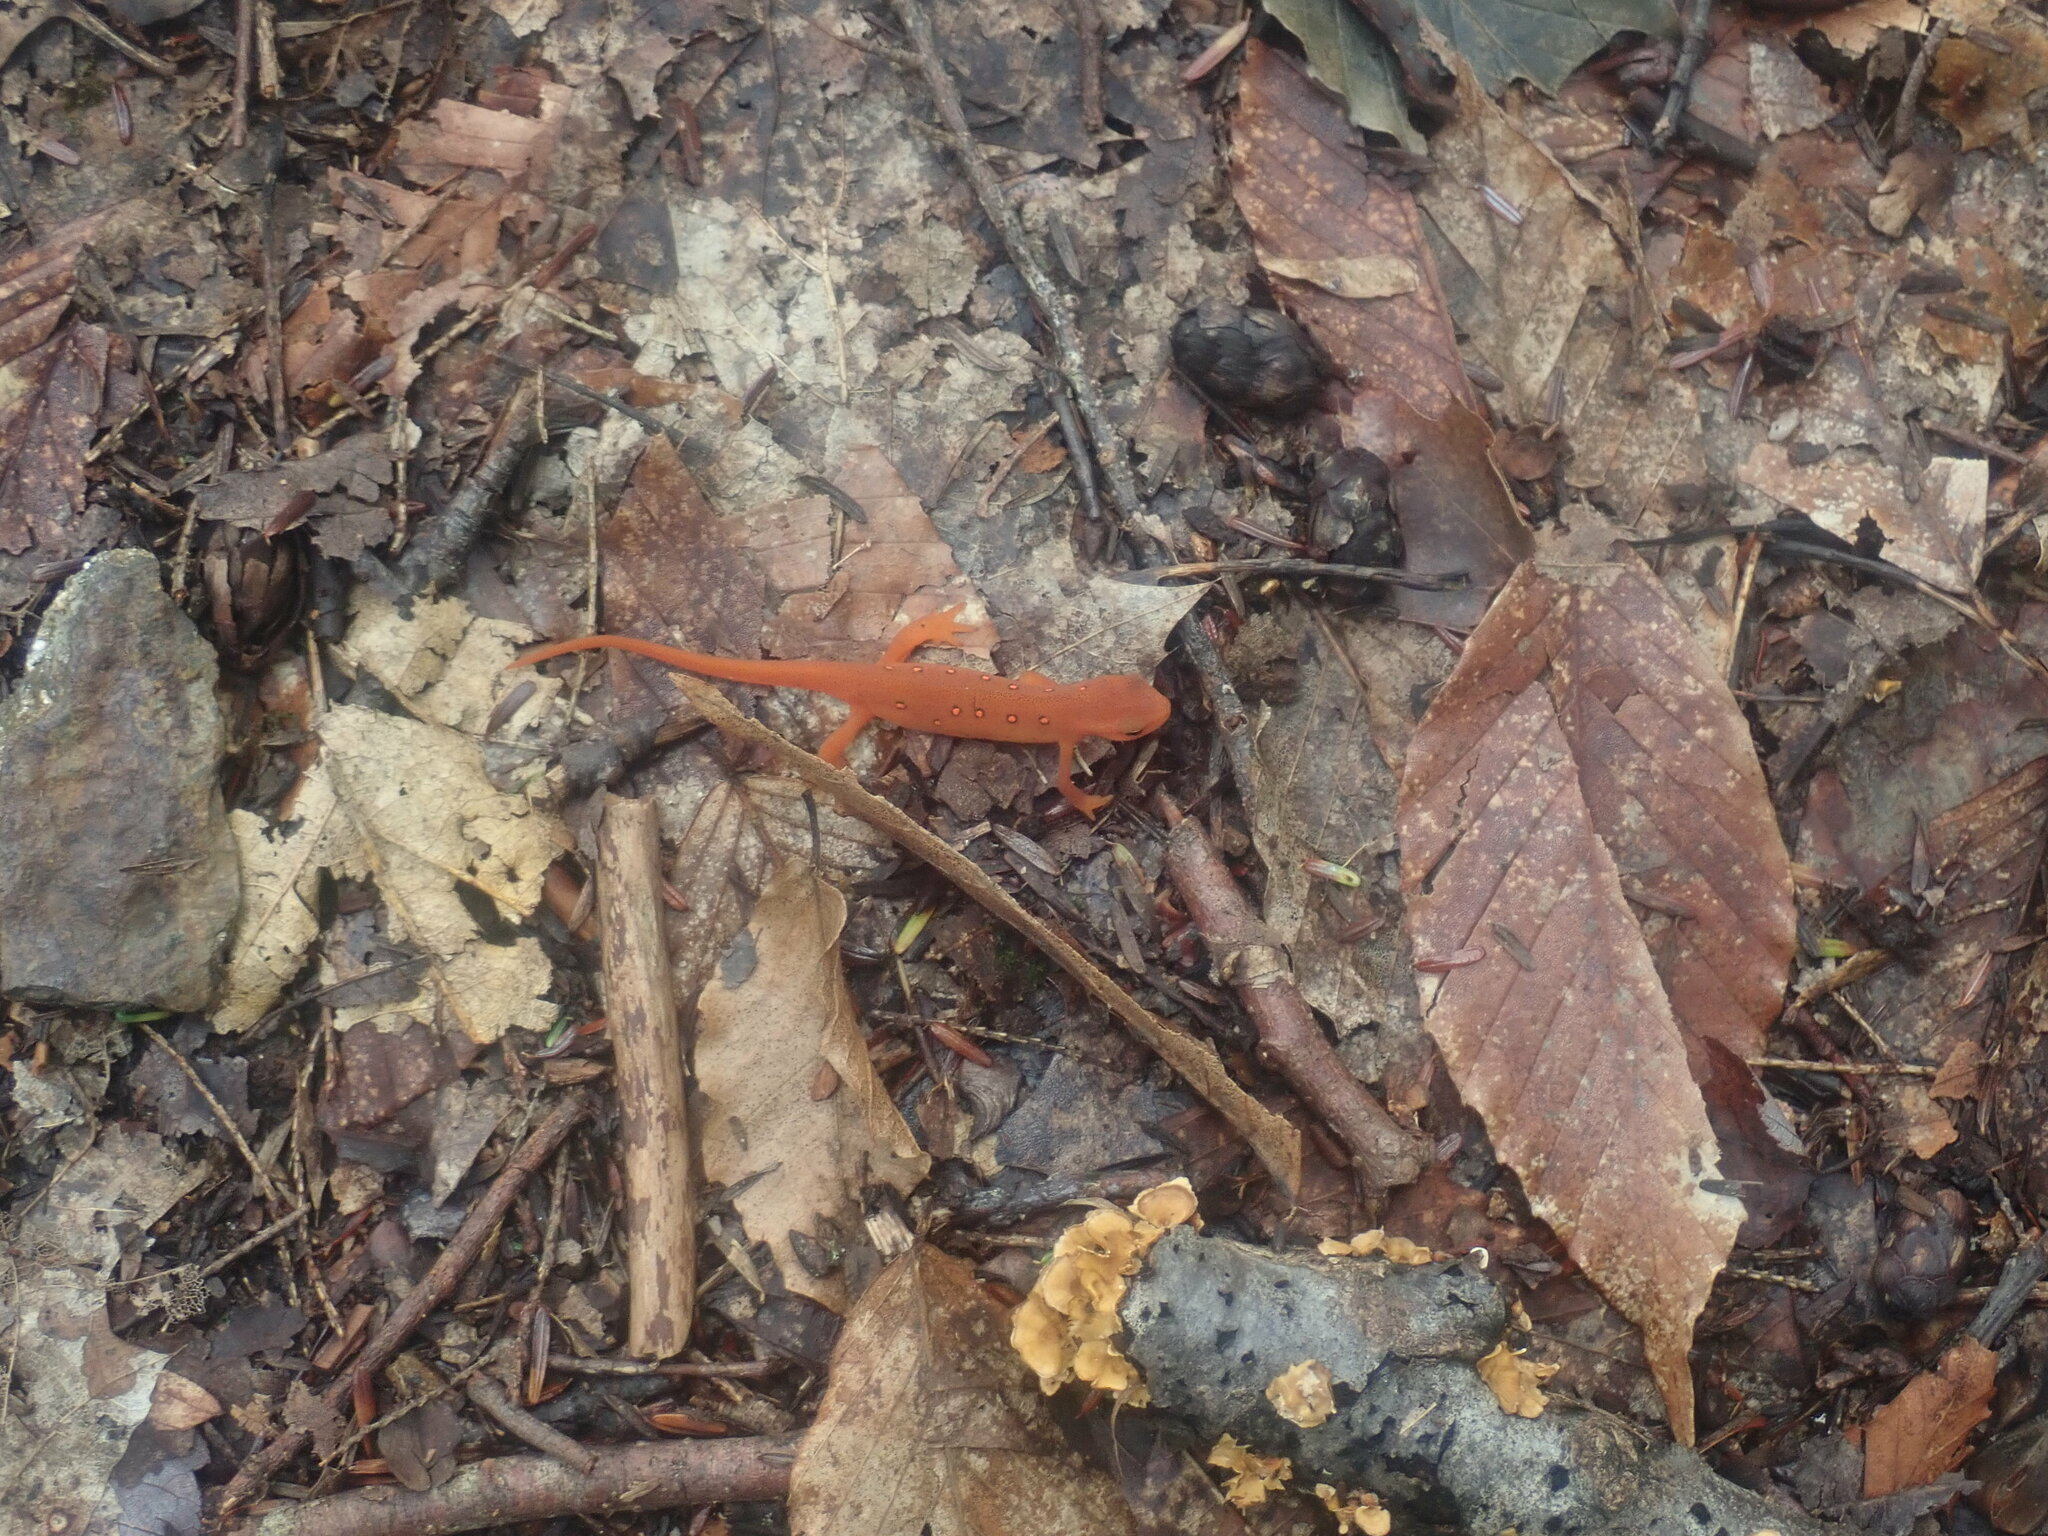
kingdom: Animalia
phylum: Chordata
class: Amphibia
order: Caudata
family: Salamandridae
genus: Notophthalmus
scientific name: Notophthalmus viridescens
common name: Eastern newt
